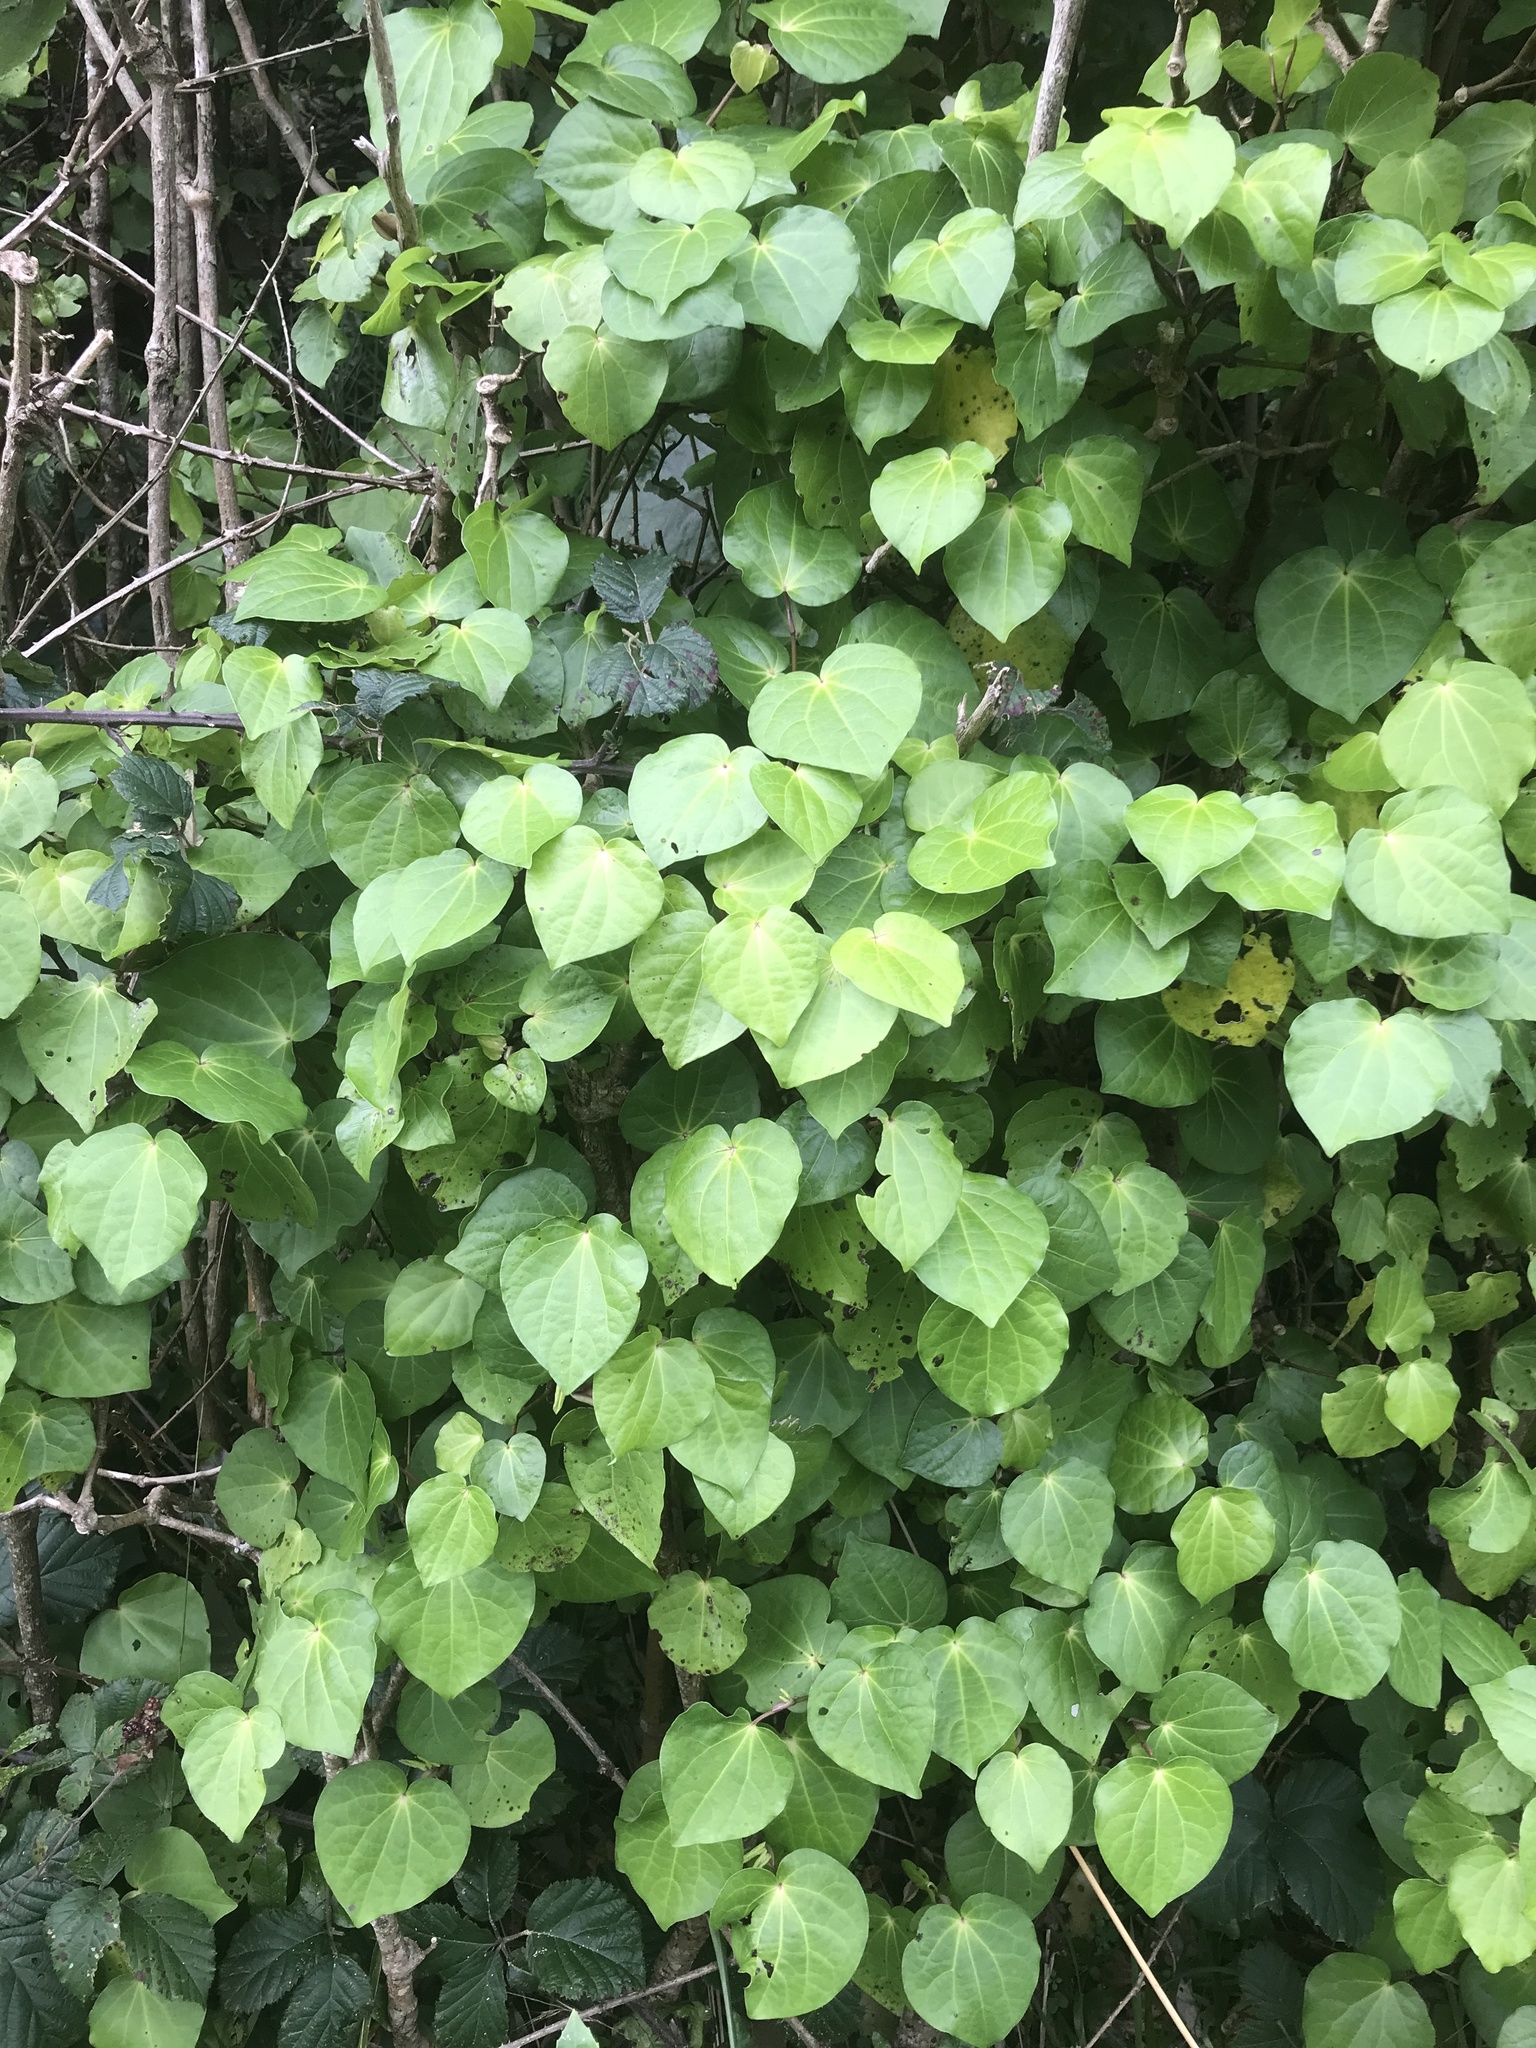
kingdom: Plantae
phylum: Tracheophyta
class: Magnoliopsida
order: Piperales
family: Piperaceae
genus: Macropiper
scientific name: Macropiper excelsum
